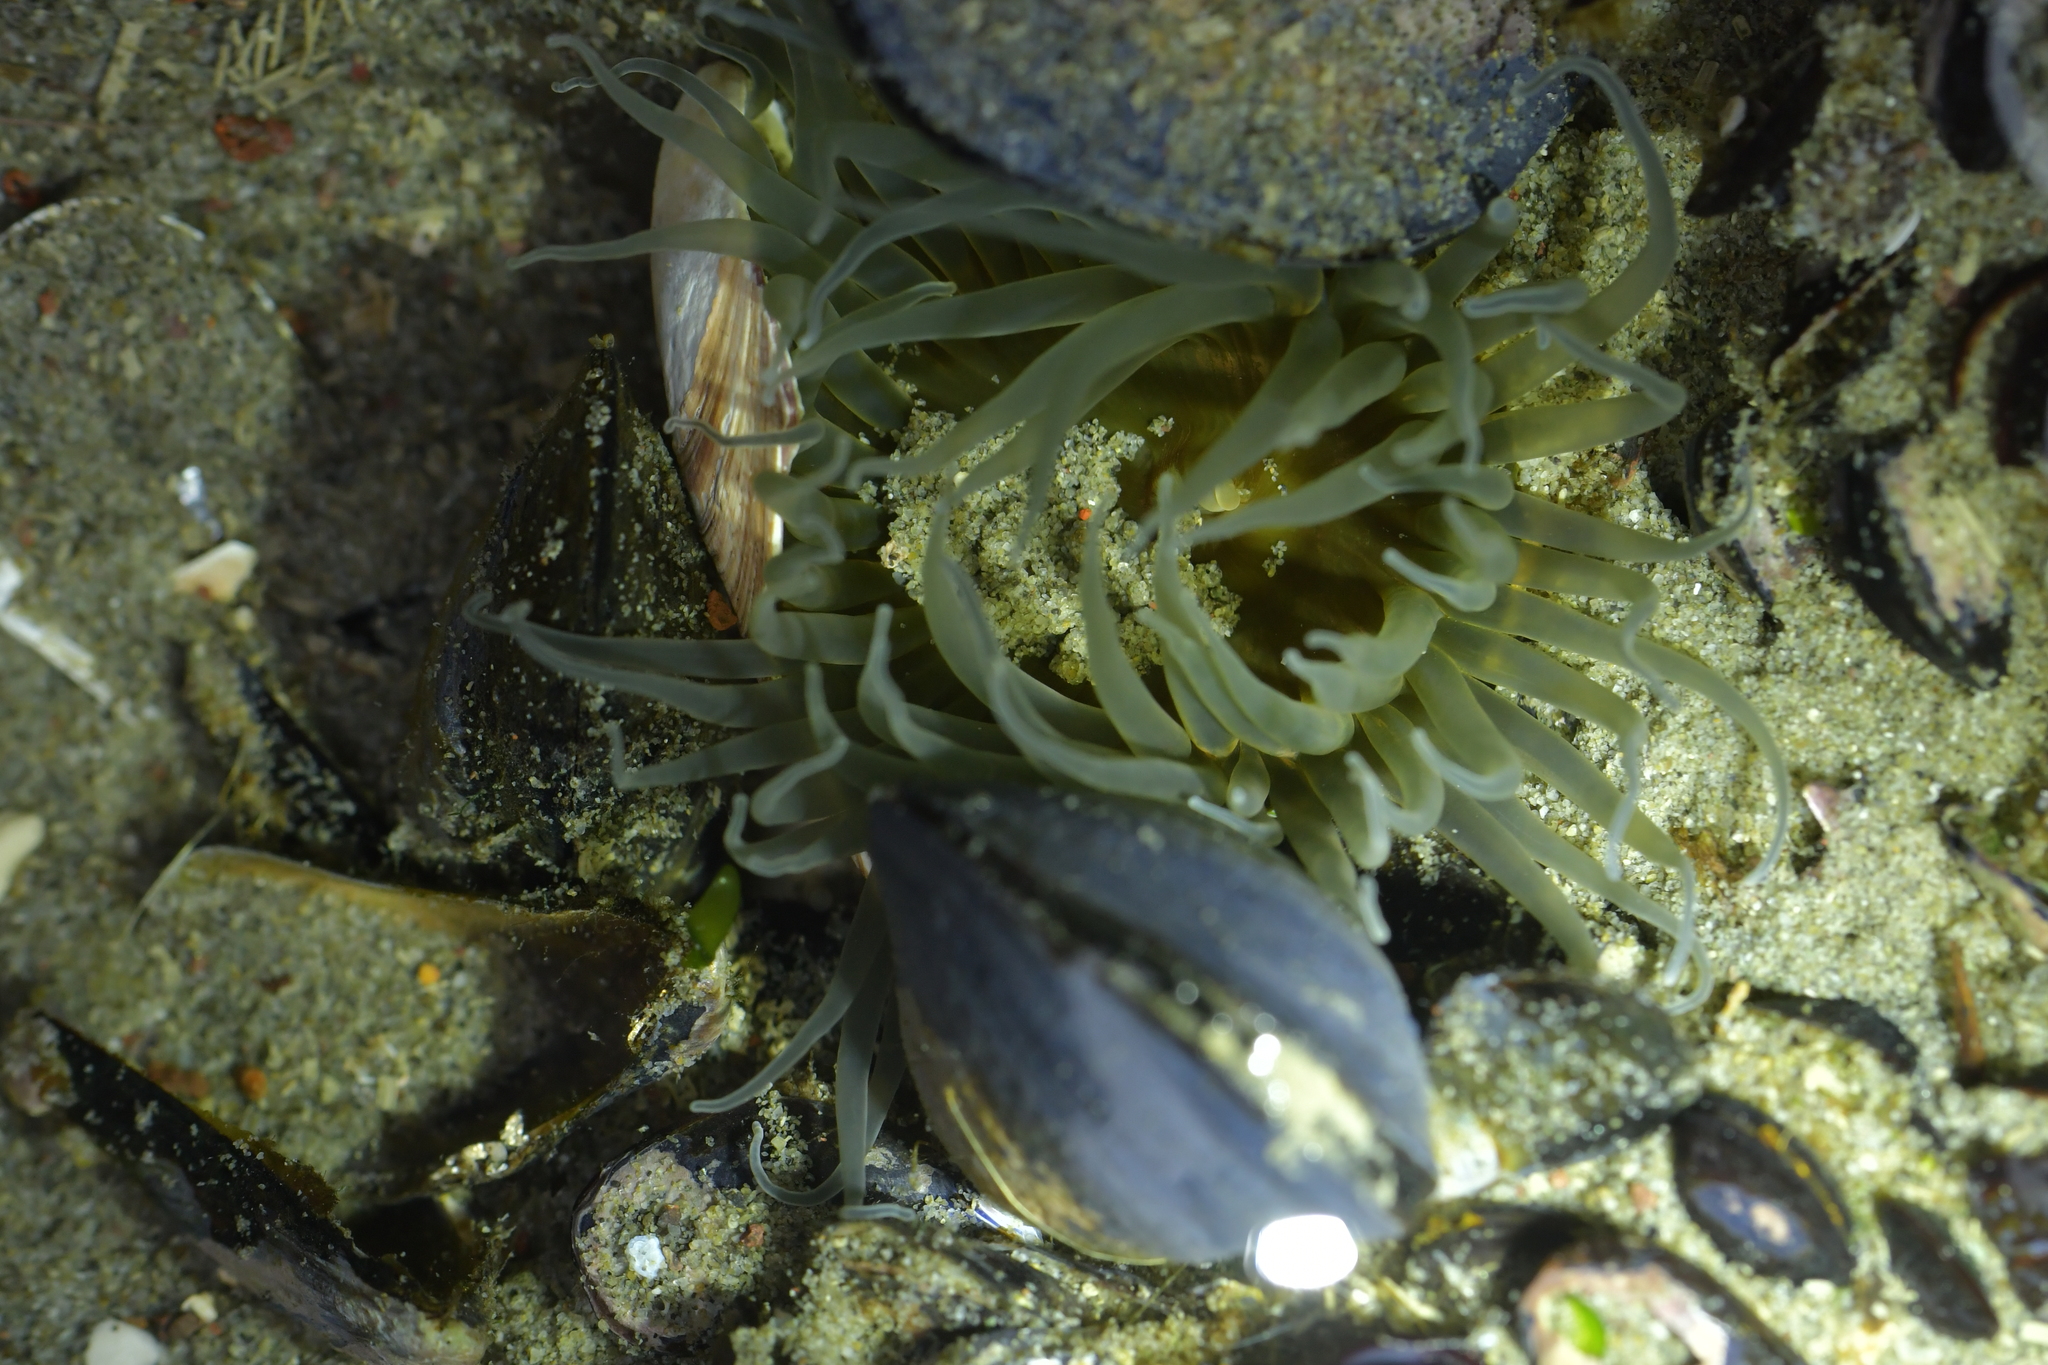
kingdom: Animalia
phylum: Cnidaria
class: Anthozoa
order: Actiniaria
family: Actiniidae
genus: Isactinia
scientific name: Isactinia olivacea
